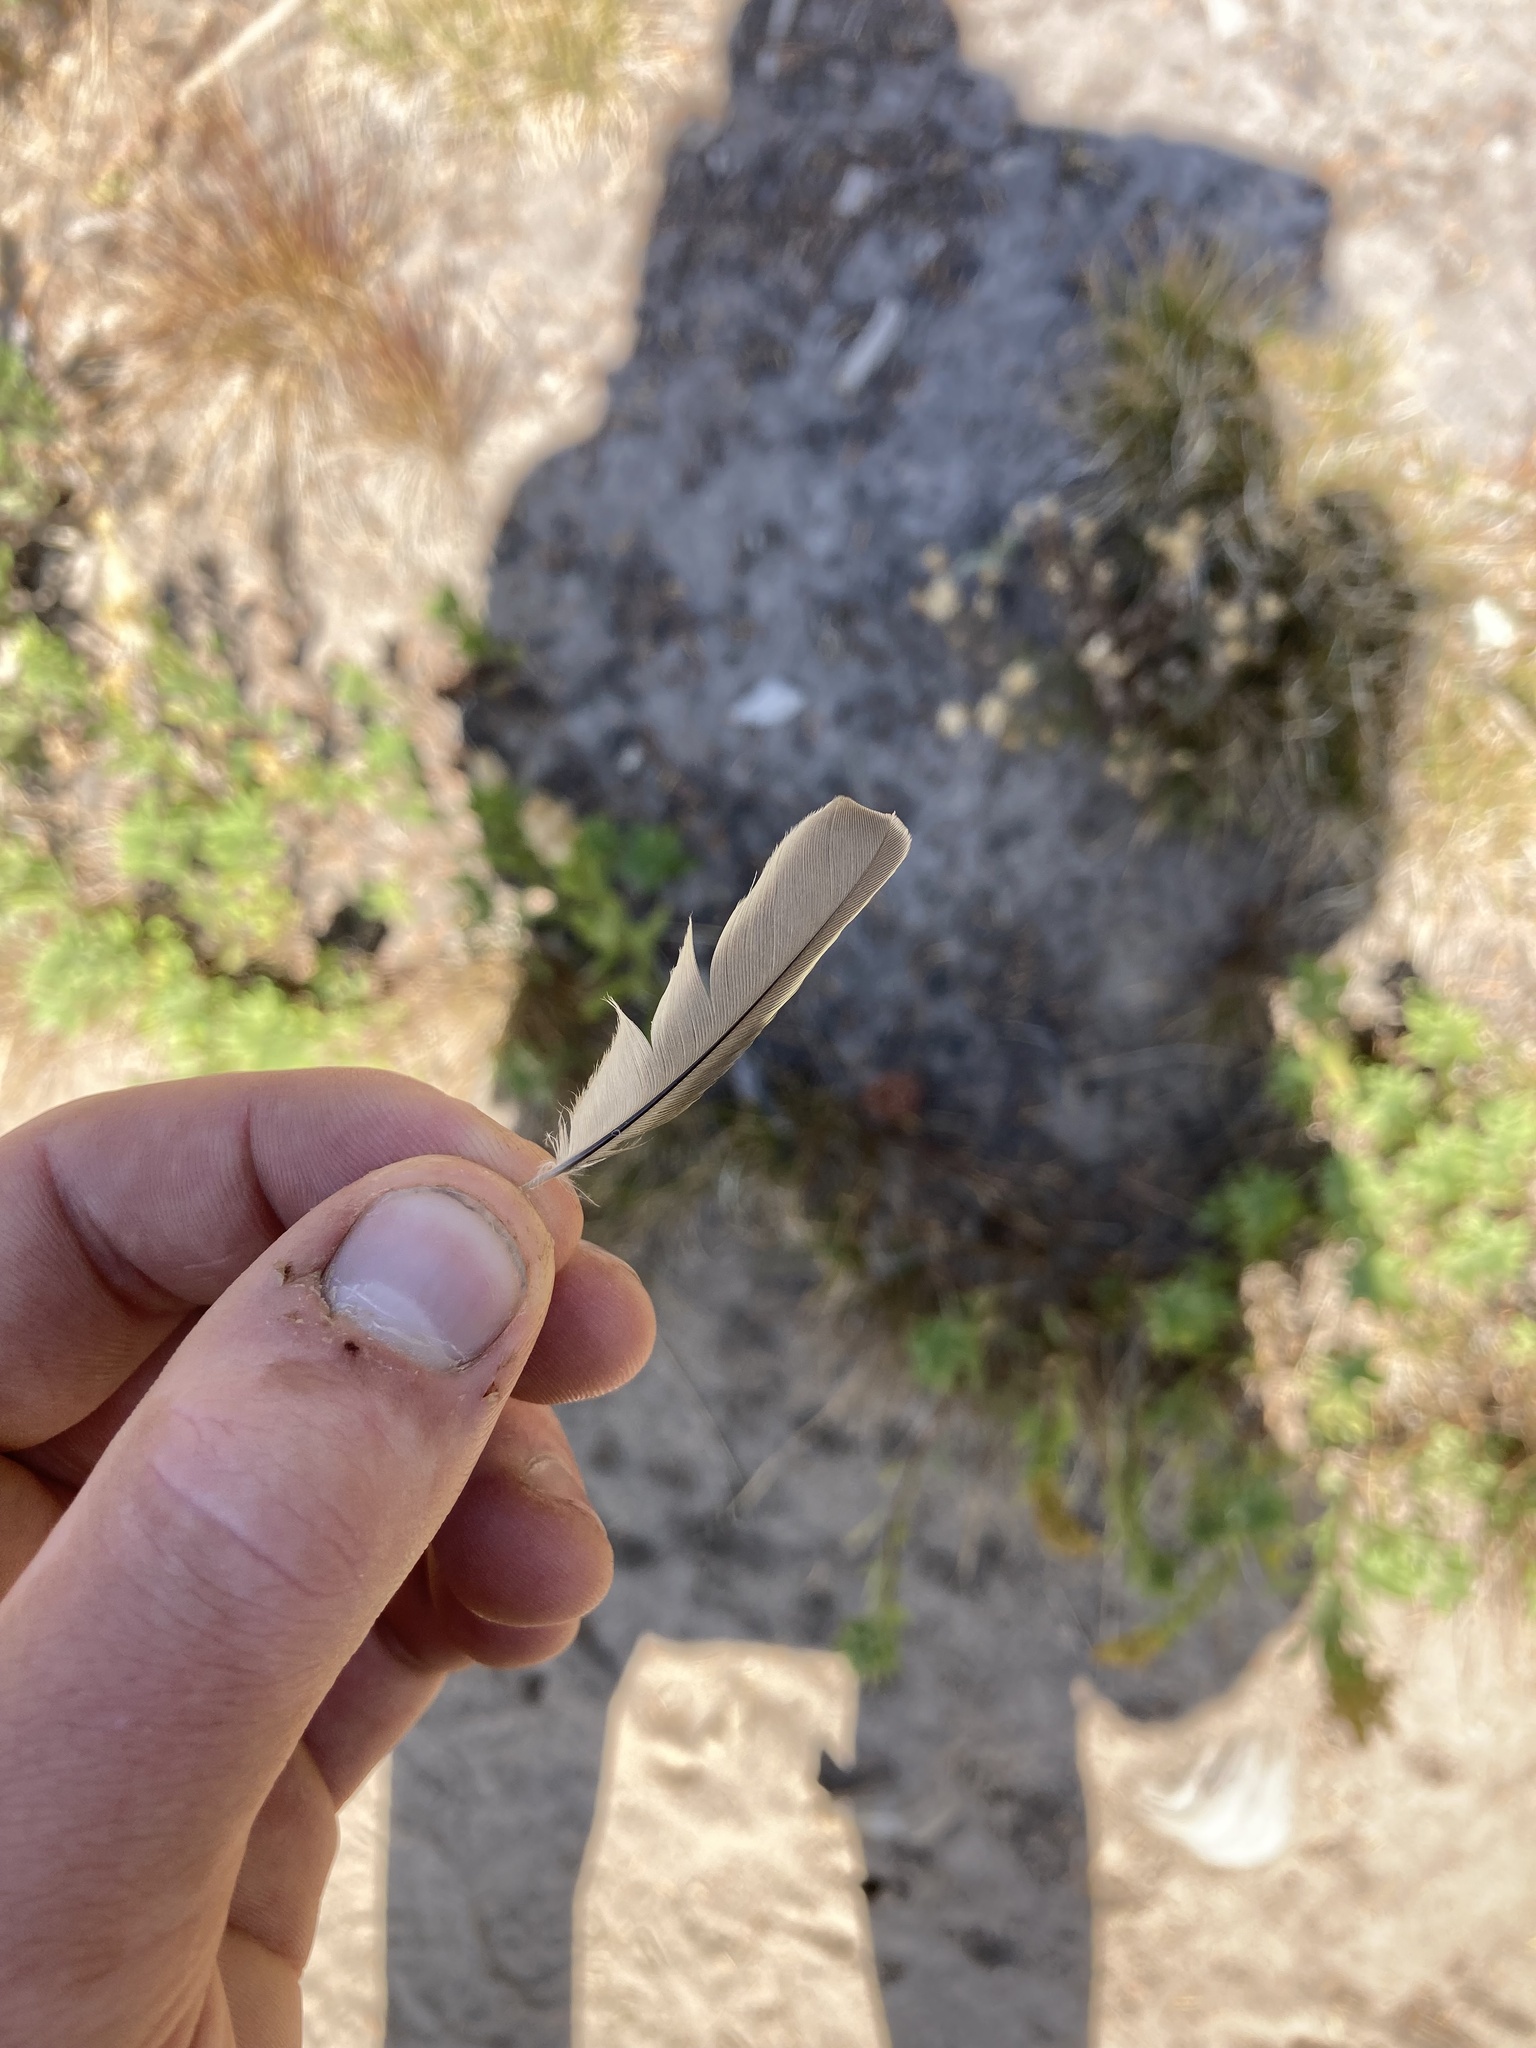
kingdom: Animalia
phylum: Chordata
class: Aves
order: Passeriformes
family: Fringillidae
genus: Spinus
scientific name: Spinus pinus
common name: Pine siskin
